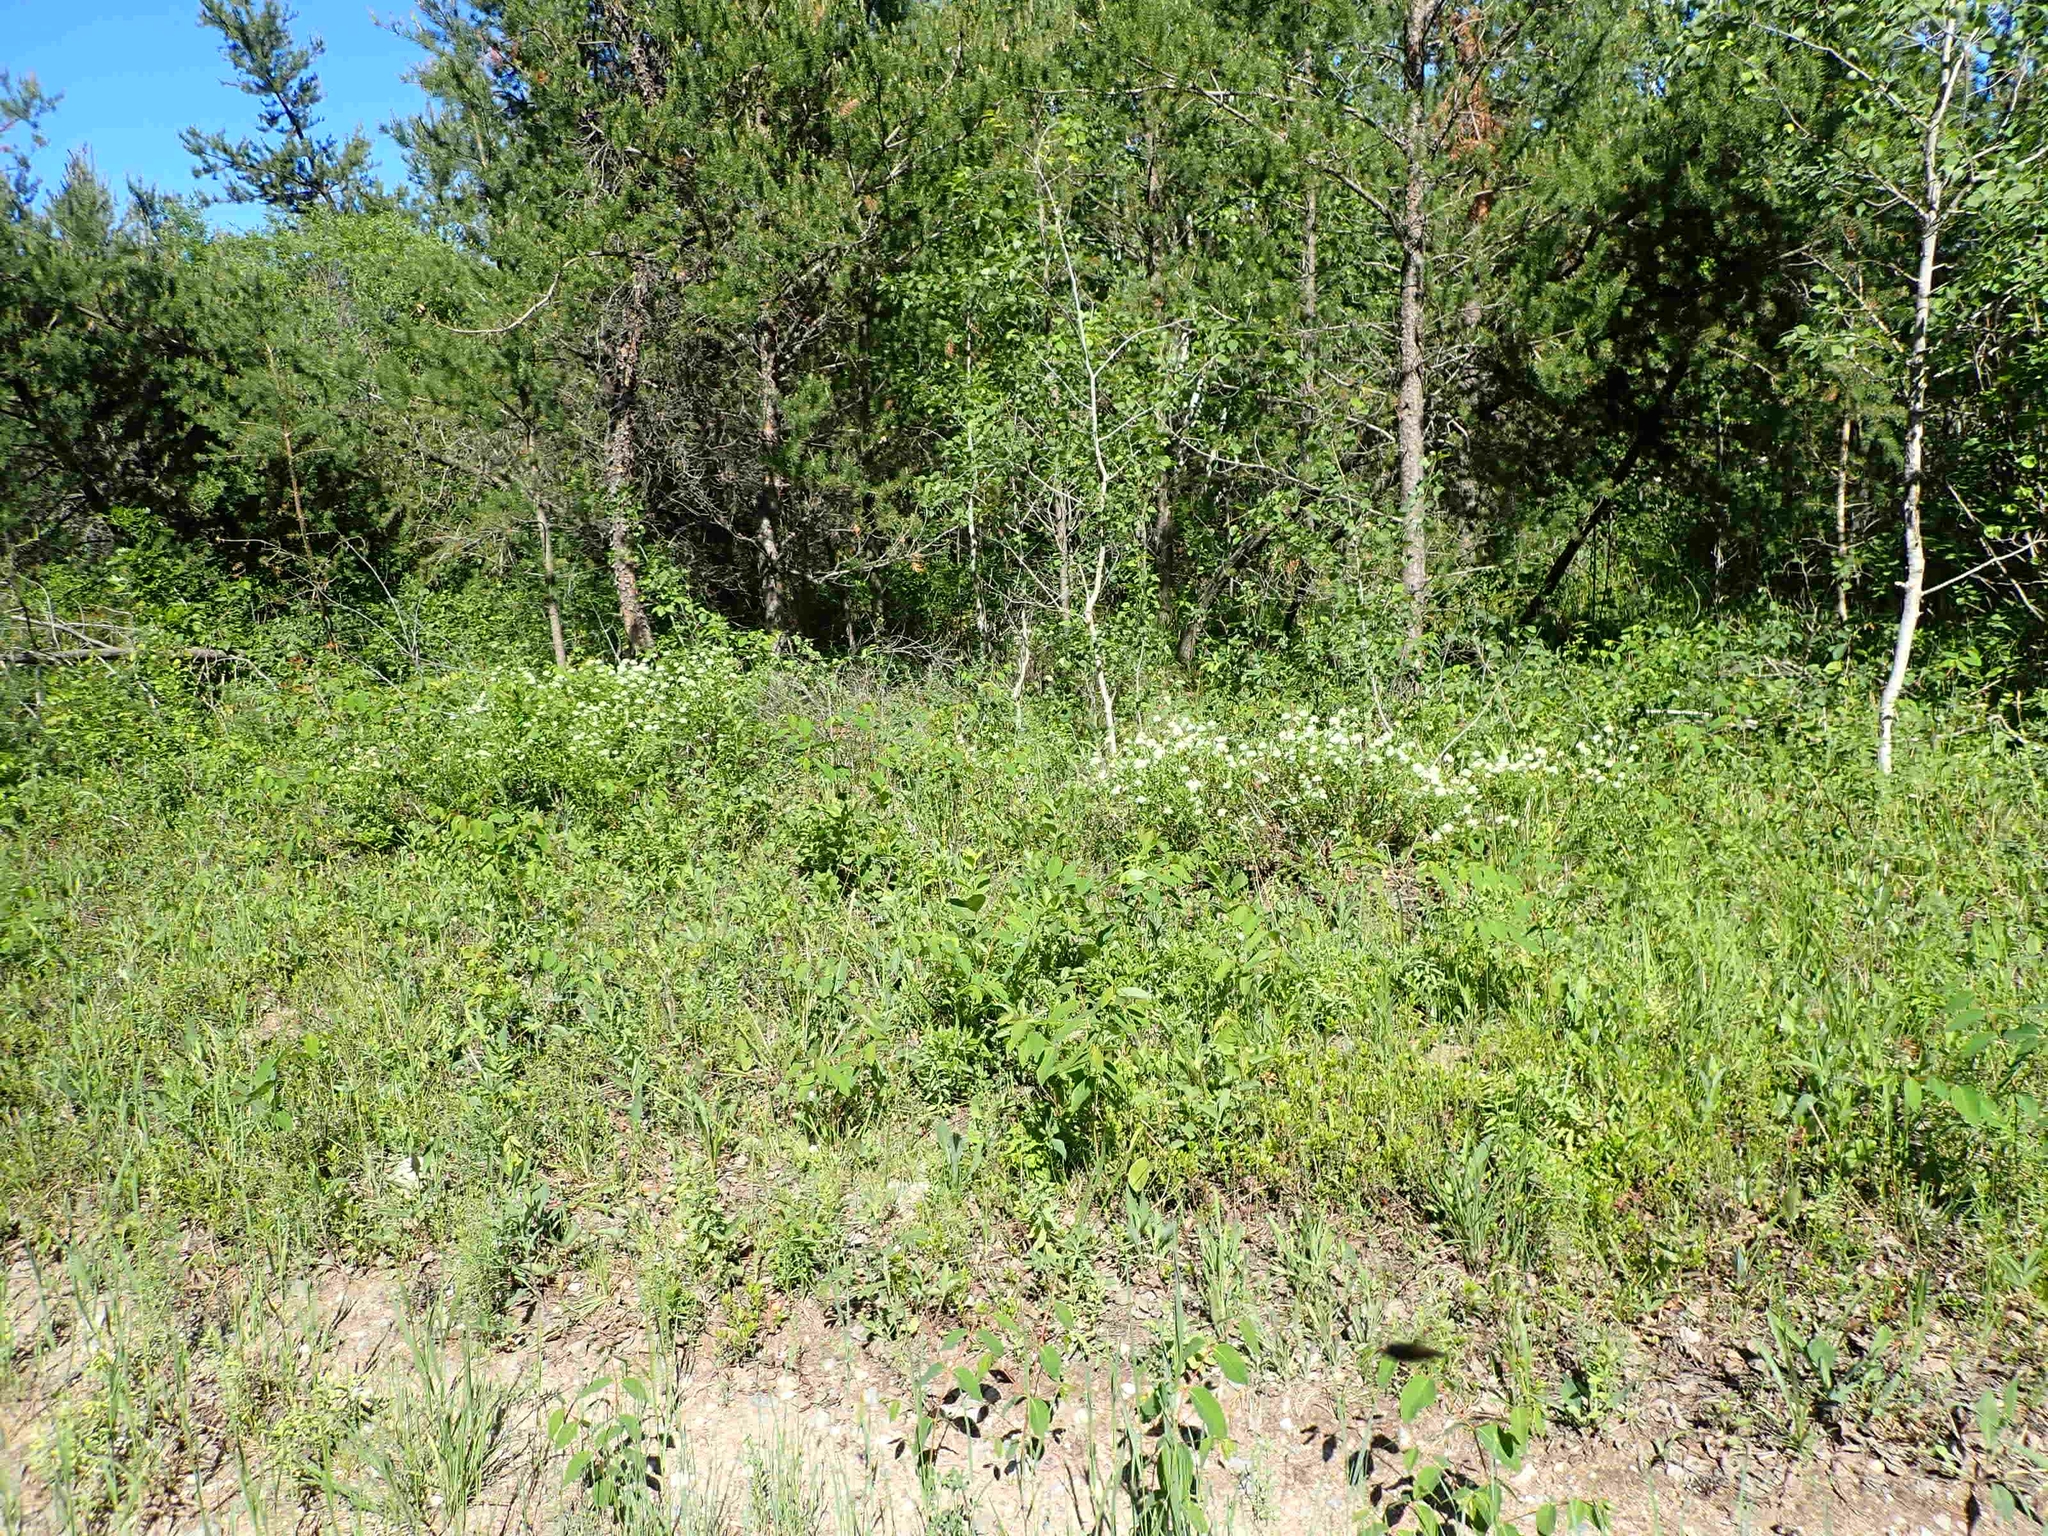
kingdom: Plantae
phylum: Tracheophyta
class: Magnoliopsida
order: Rosales
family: Rhamnaceae
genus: Ceanothus
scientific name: Ceanothus herbaceus
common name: Inland ceanothus
